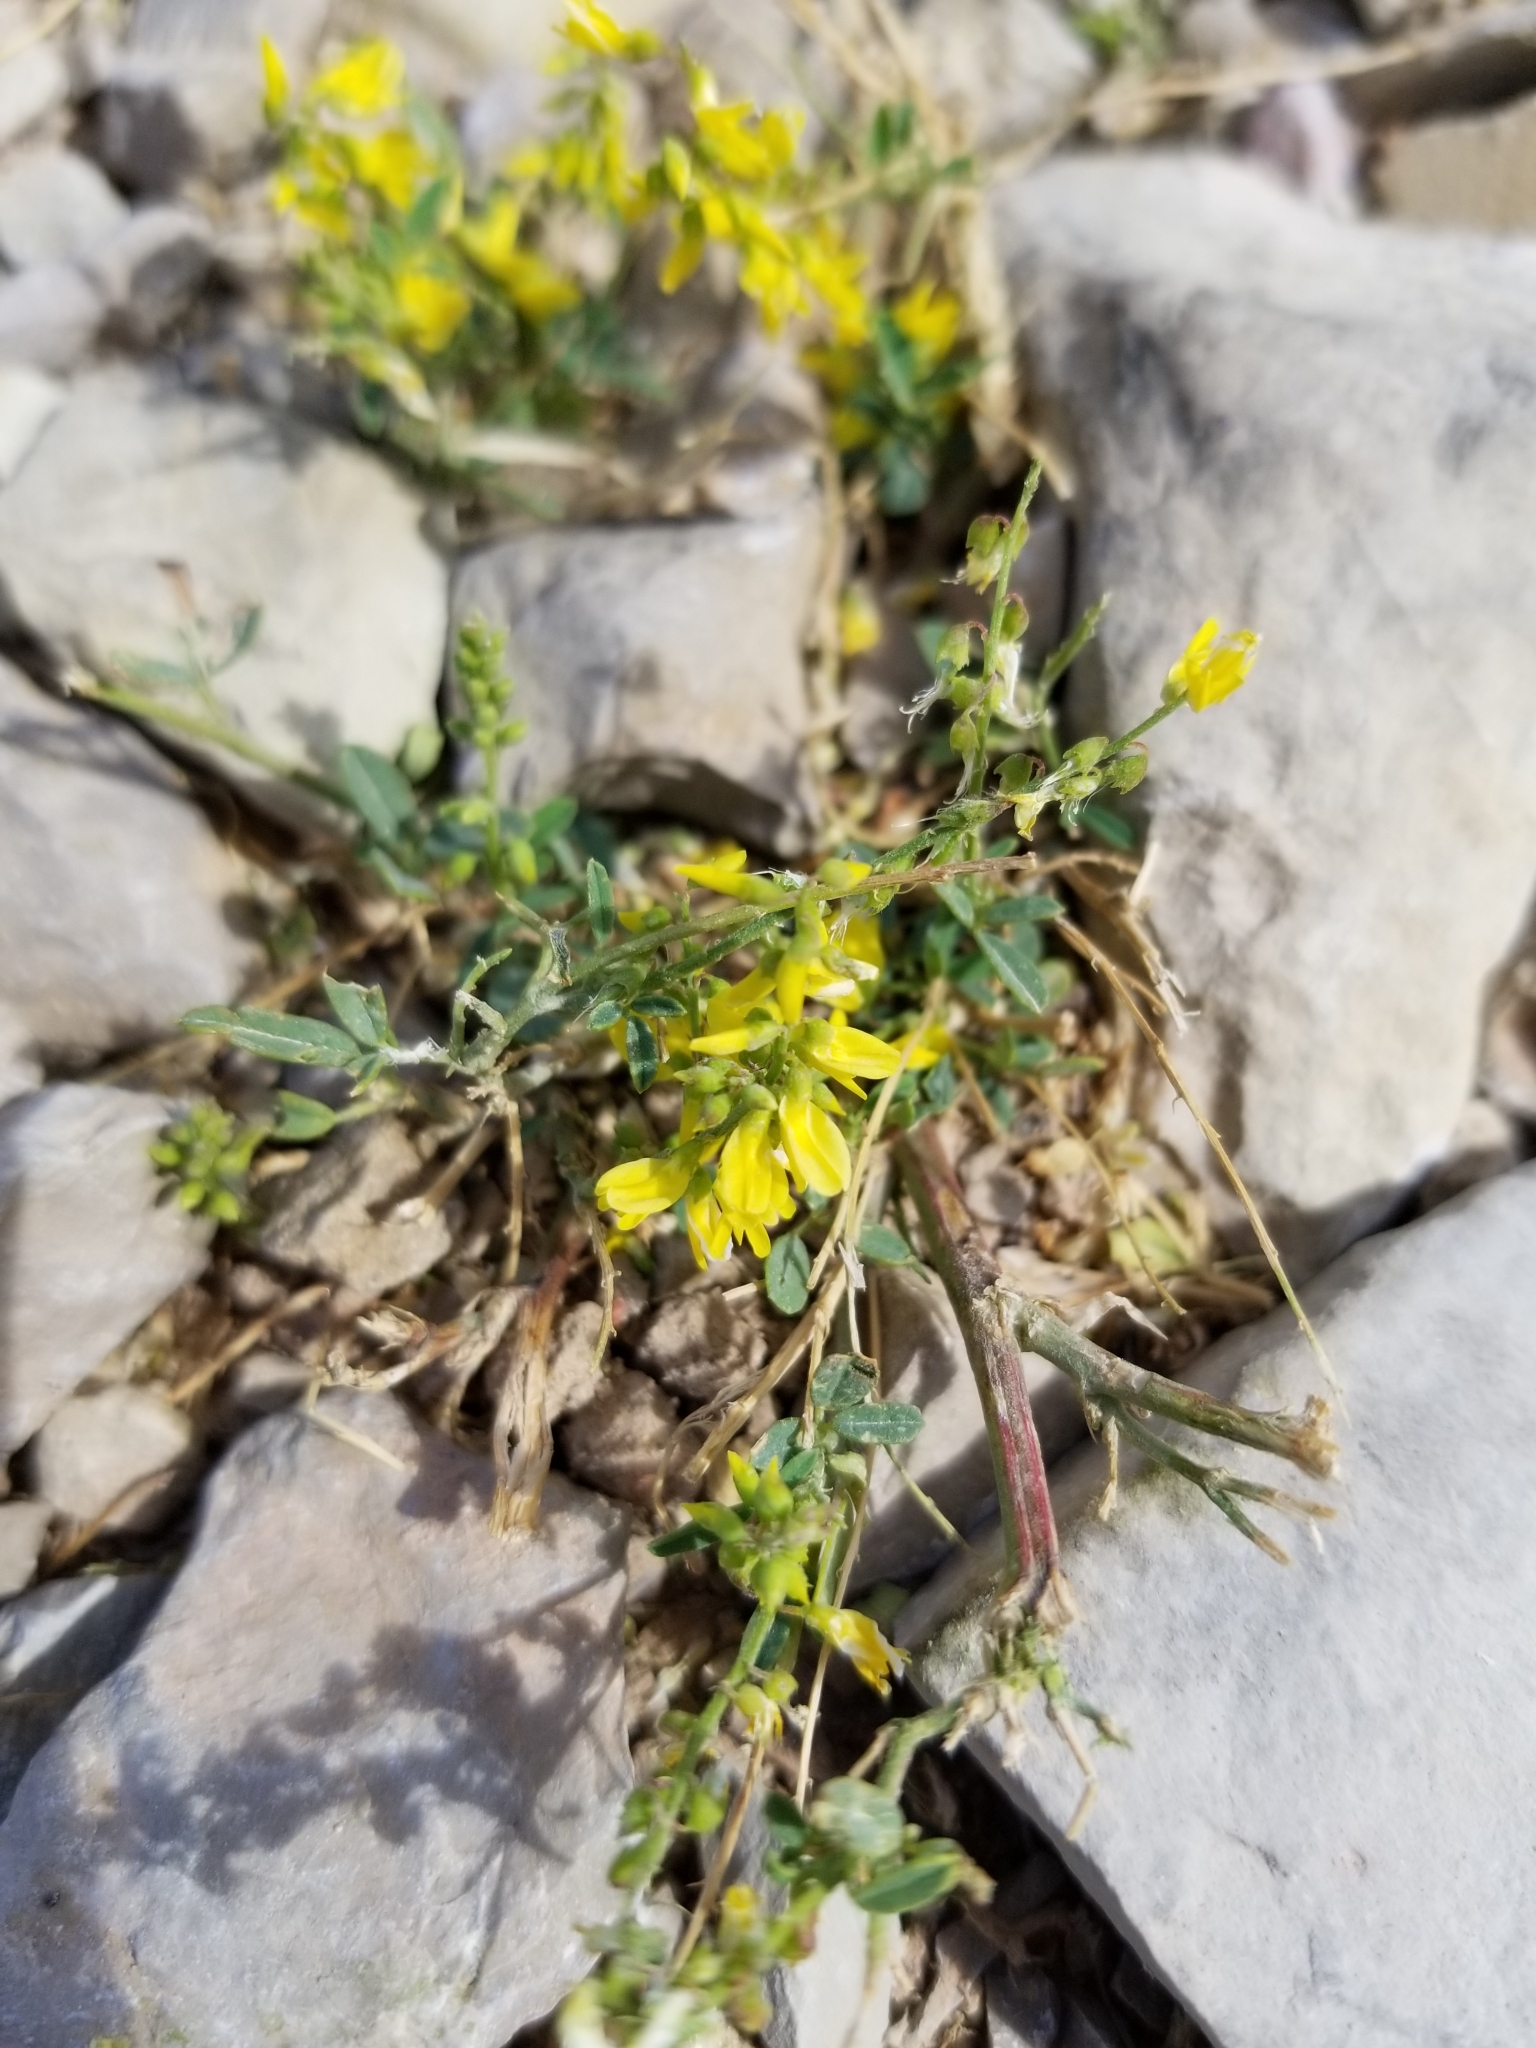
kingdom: Plantae
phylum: Tracheophyta
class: Magnoliopsida
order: Fabales
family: Fabaceae
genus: Melilotus
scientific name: Melilotus officinalis
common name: Sweetclover
